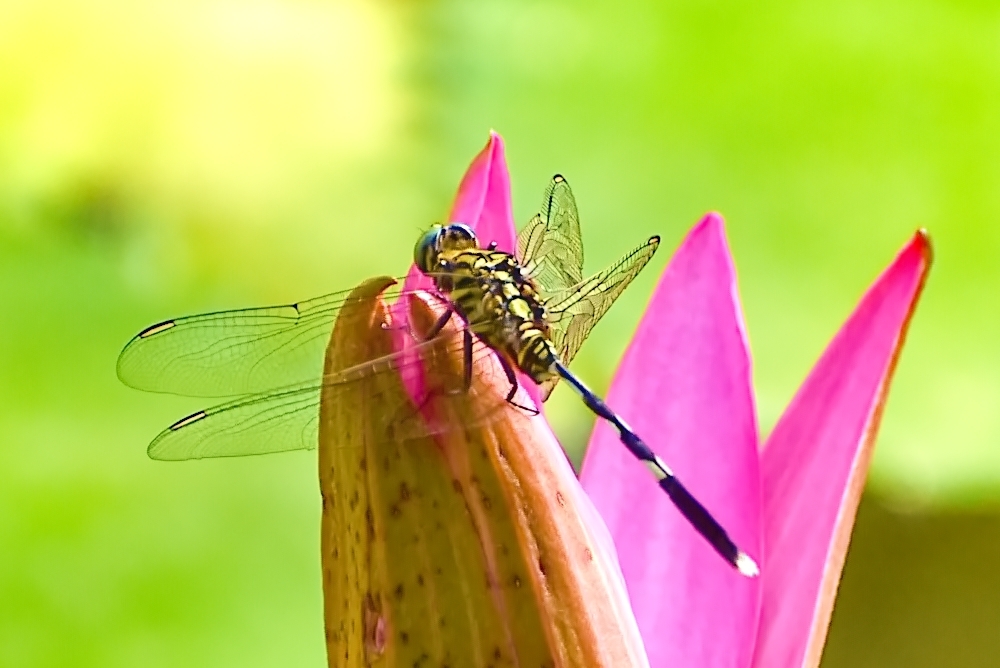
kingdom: Animalia
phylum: Arthropoda
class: Insecta
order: Odonata
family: Libellulidae
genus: Orthetrum
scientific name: Orthetrum sabina
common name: Slender skimmer
